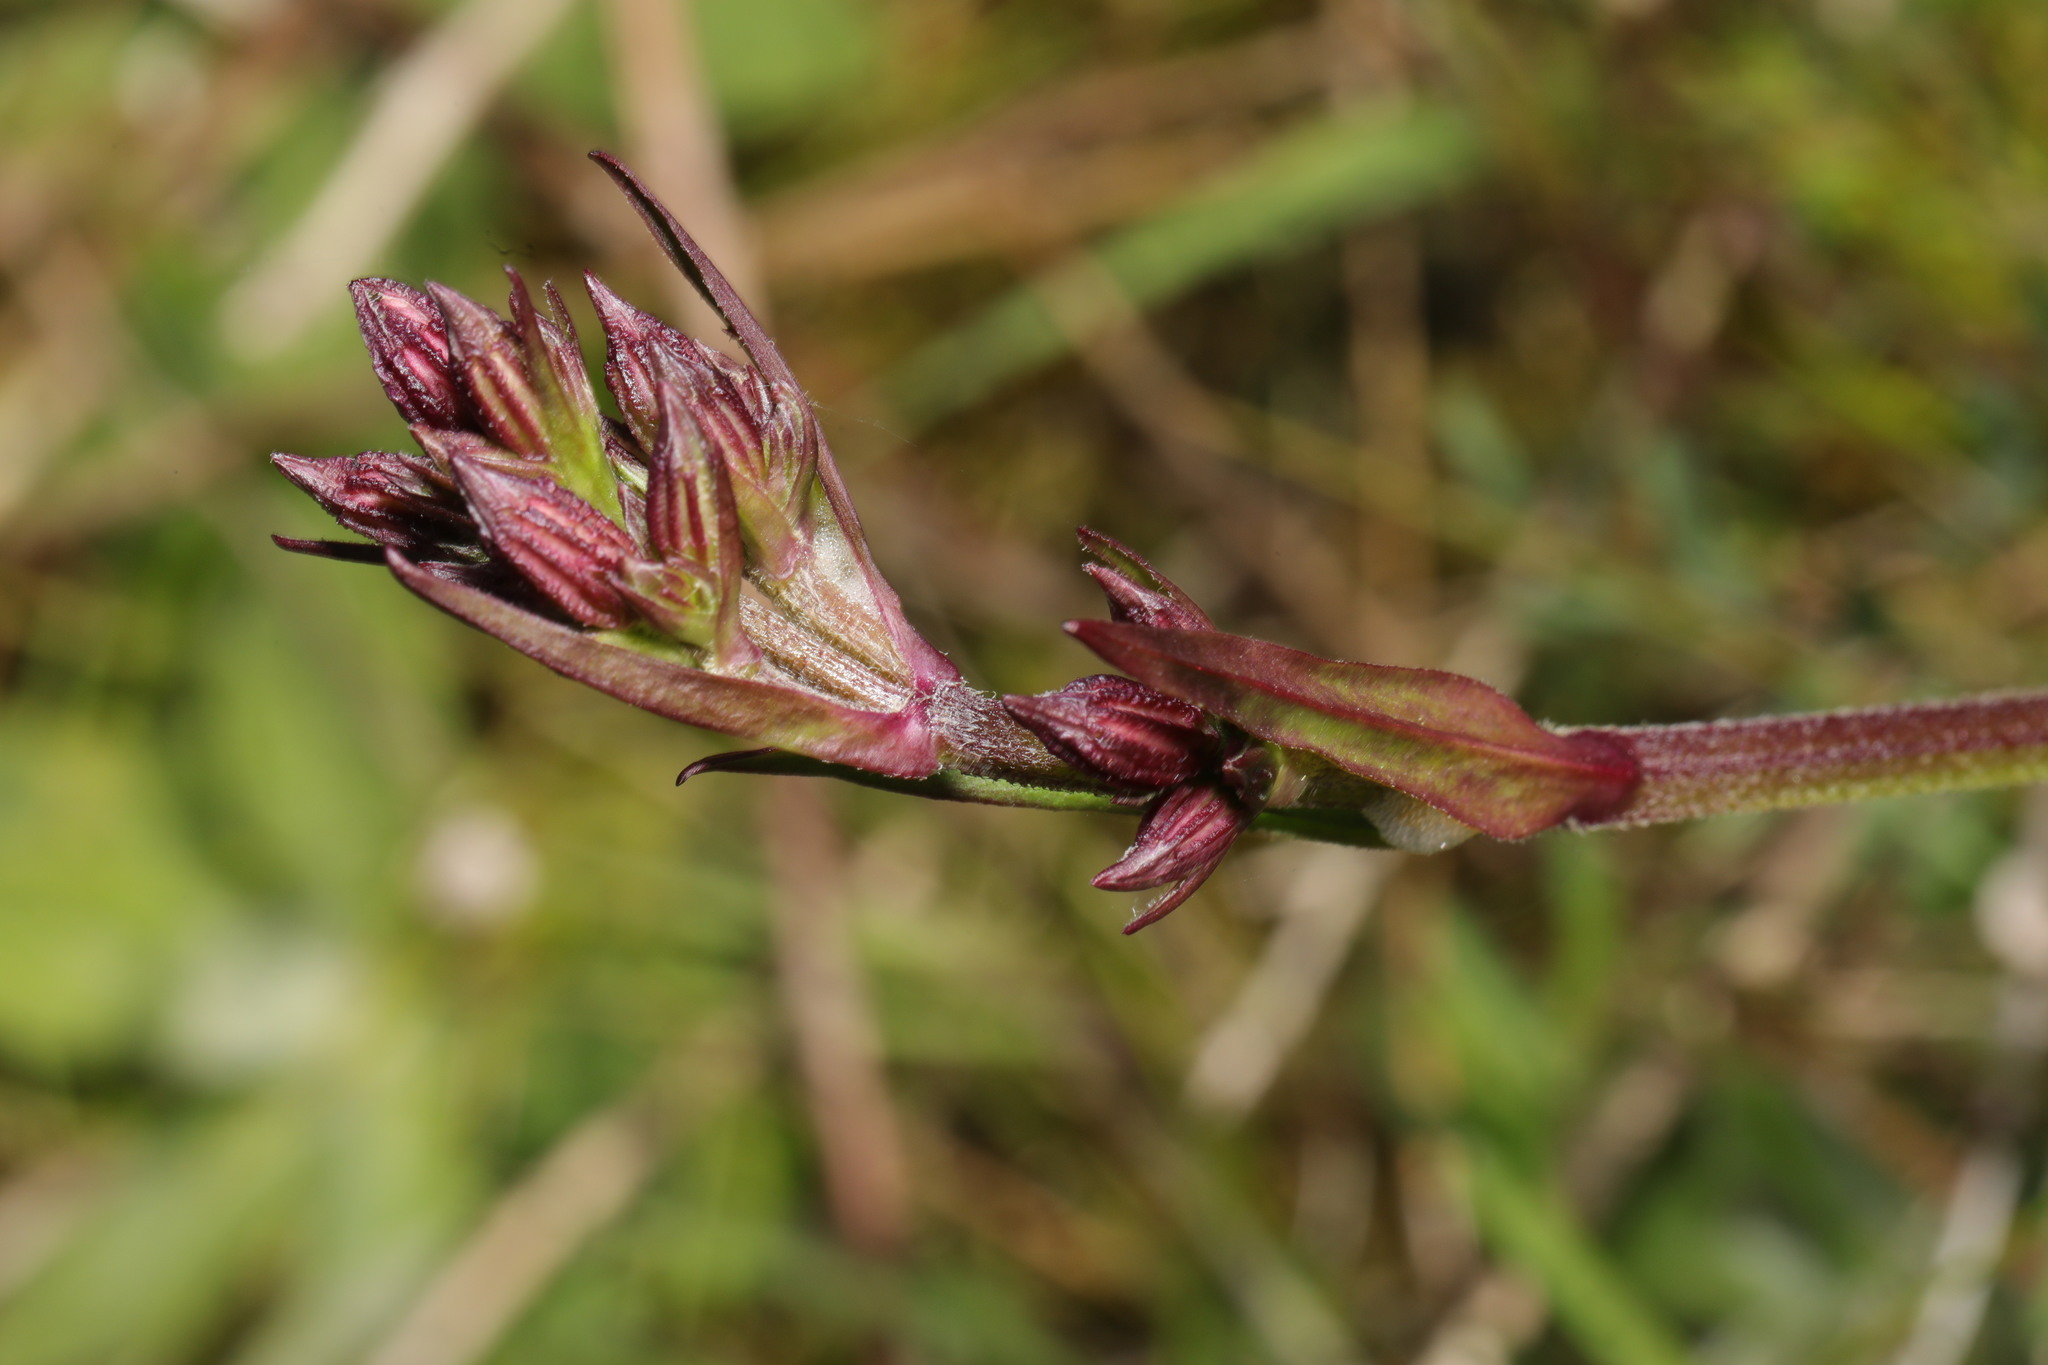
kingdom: Plantae
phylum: Tracheophyta
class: Magnoliopsida
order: Caryophyllales
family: Caryophyllaceae
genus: Silene
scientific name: Silene flos-cuculi
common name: Ragged-robin
